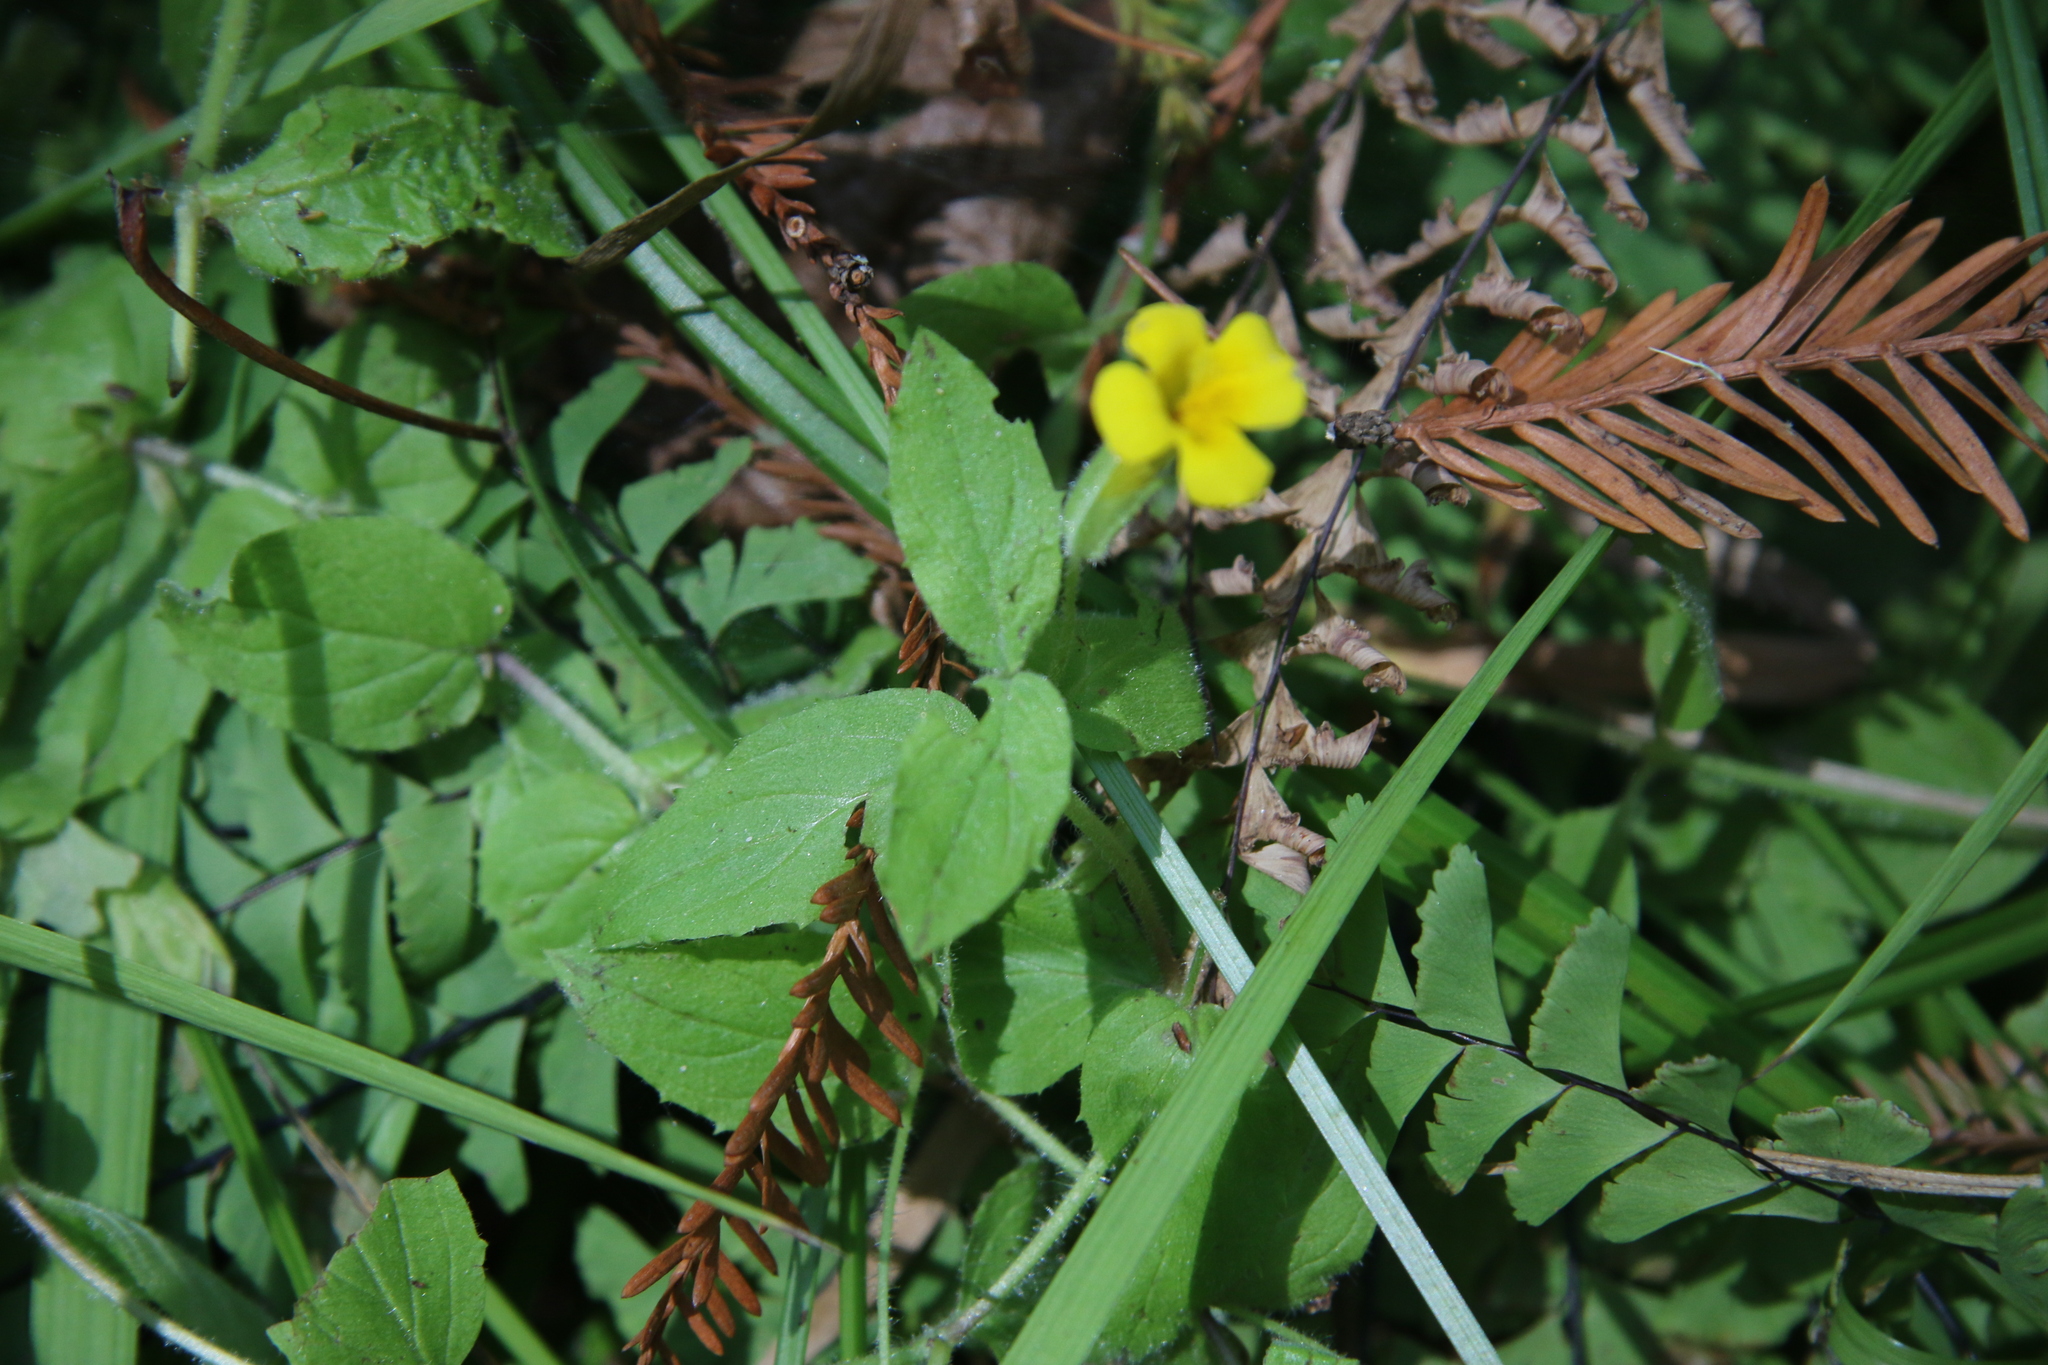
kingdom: Plantae
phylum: Tracheophyta
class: Magnoliopsida
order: Lamiales
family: Phrymaceae
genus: Erythranthe
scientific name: Erythranthe ptilota
